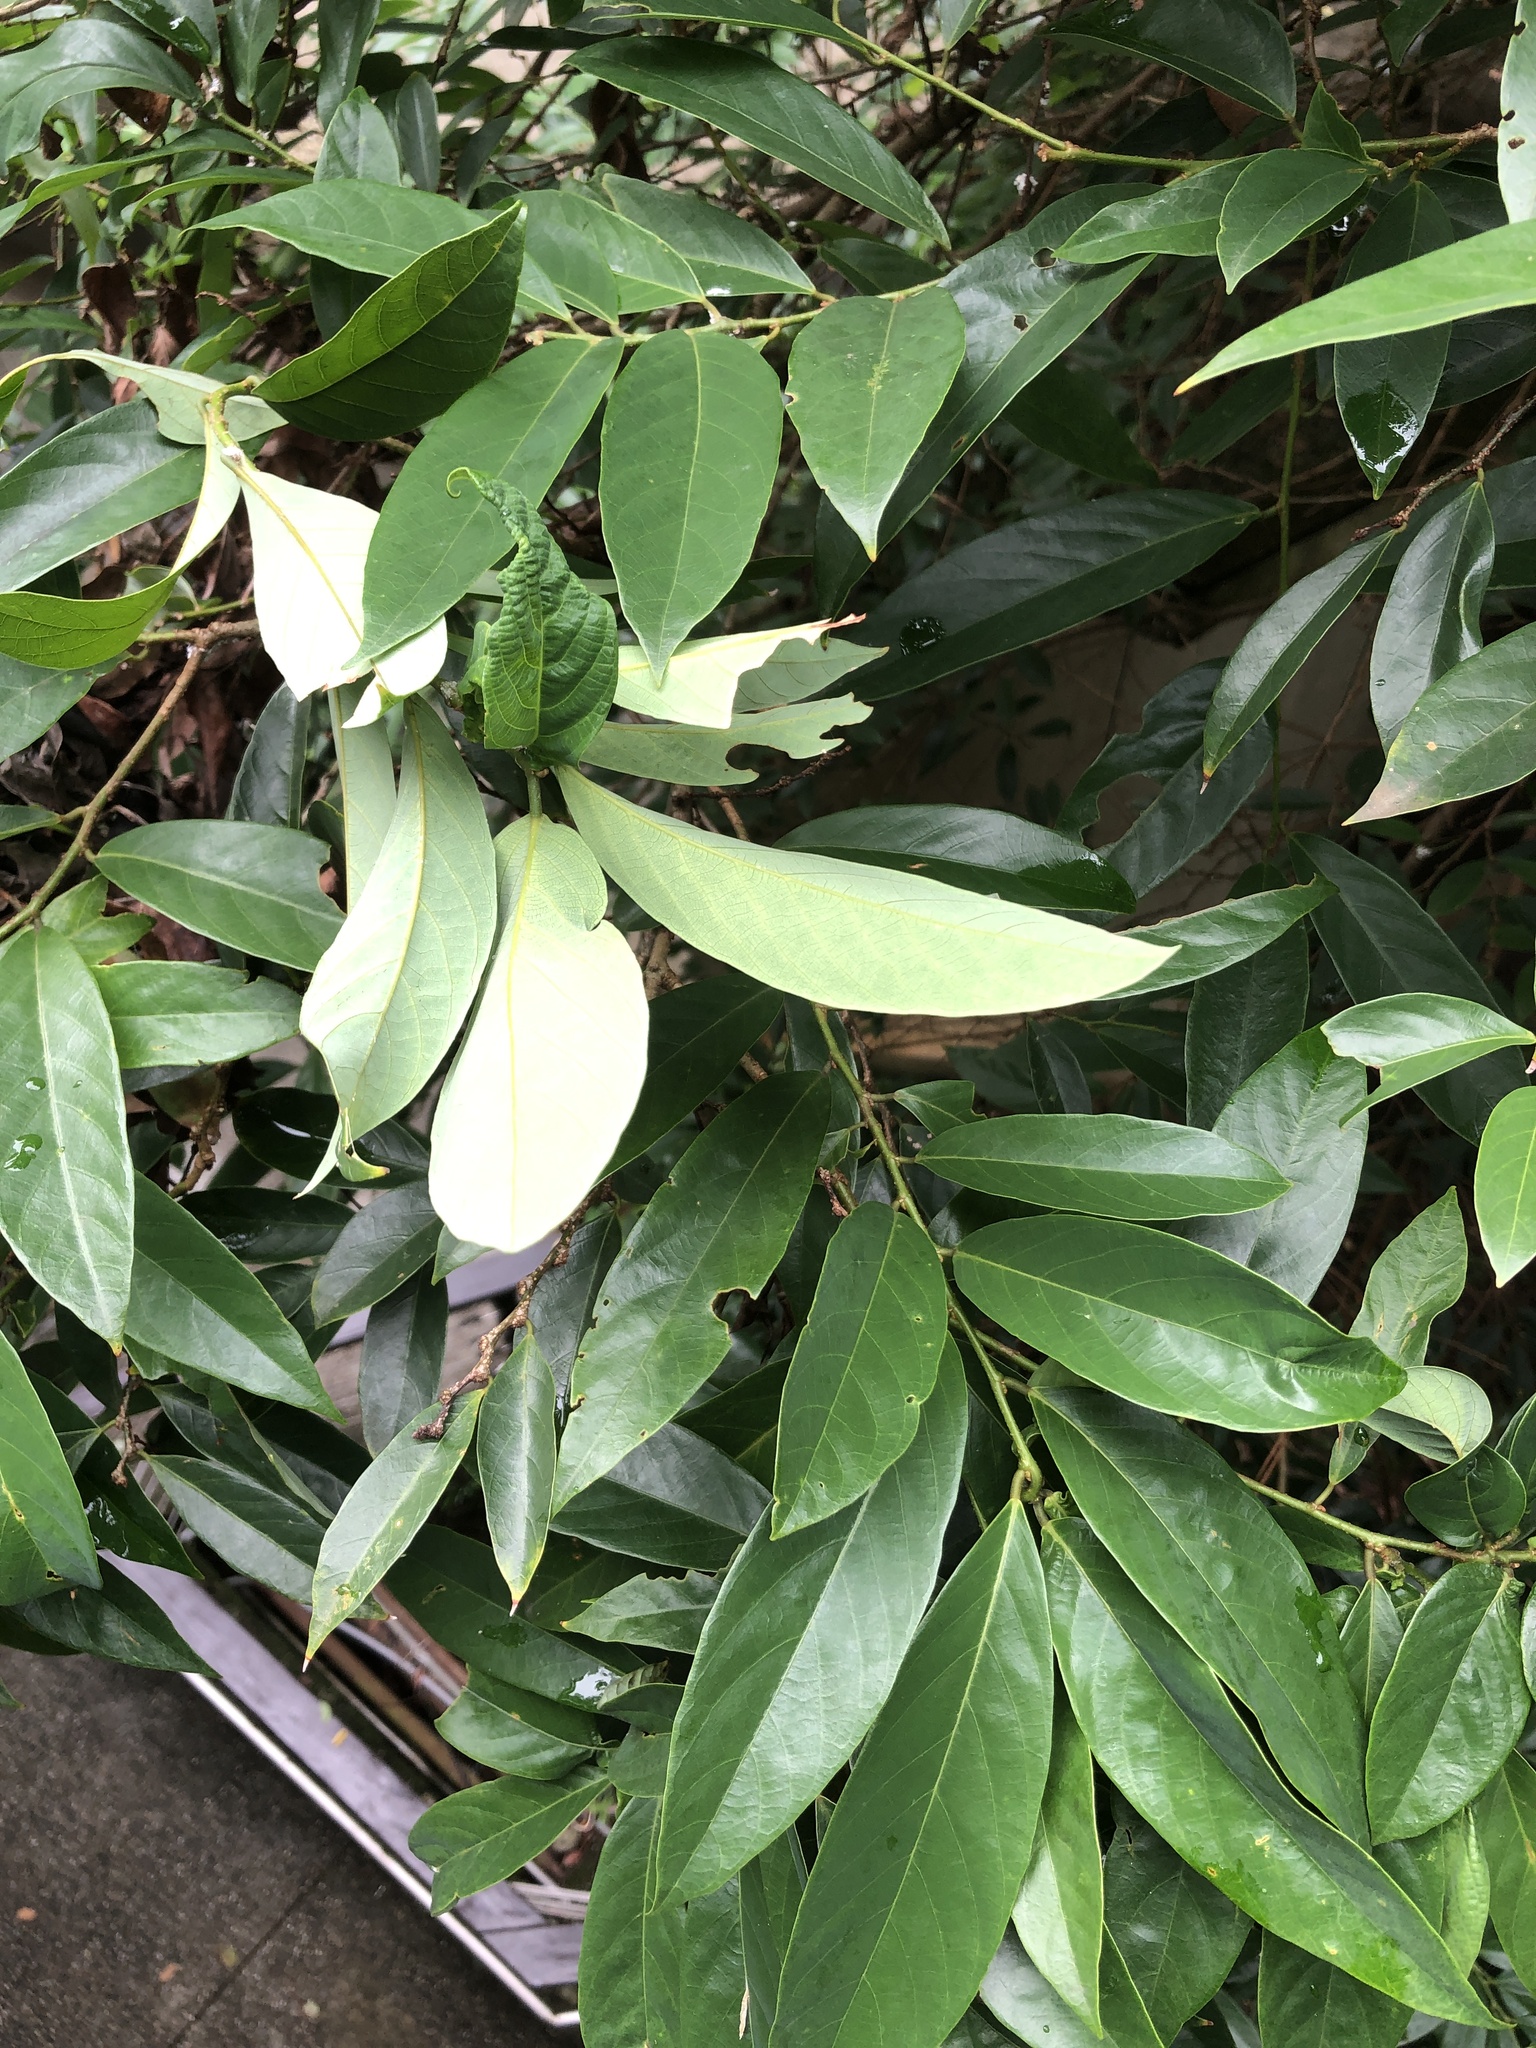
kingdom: Plantae
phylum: Tracheophyta
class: Magnoliopsida
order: Malpighiales
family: Phyllanthaceae
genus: Bridelia
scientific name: Bridelia balansae
